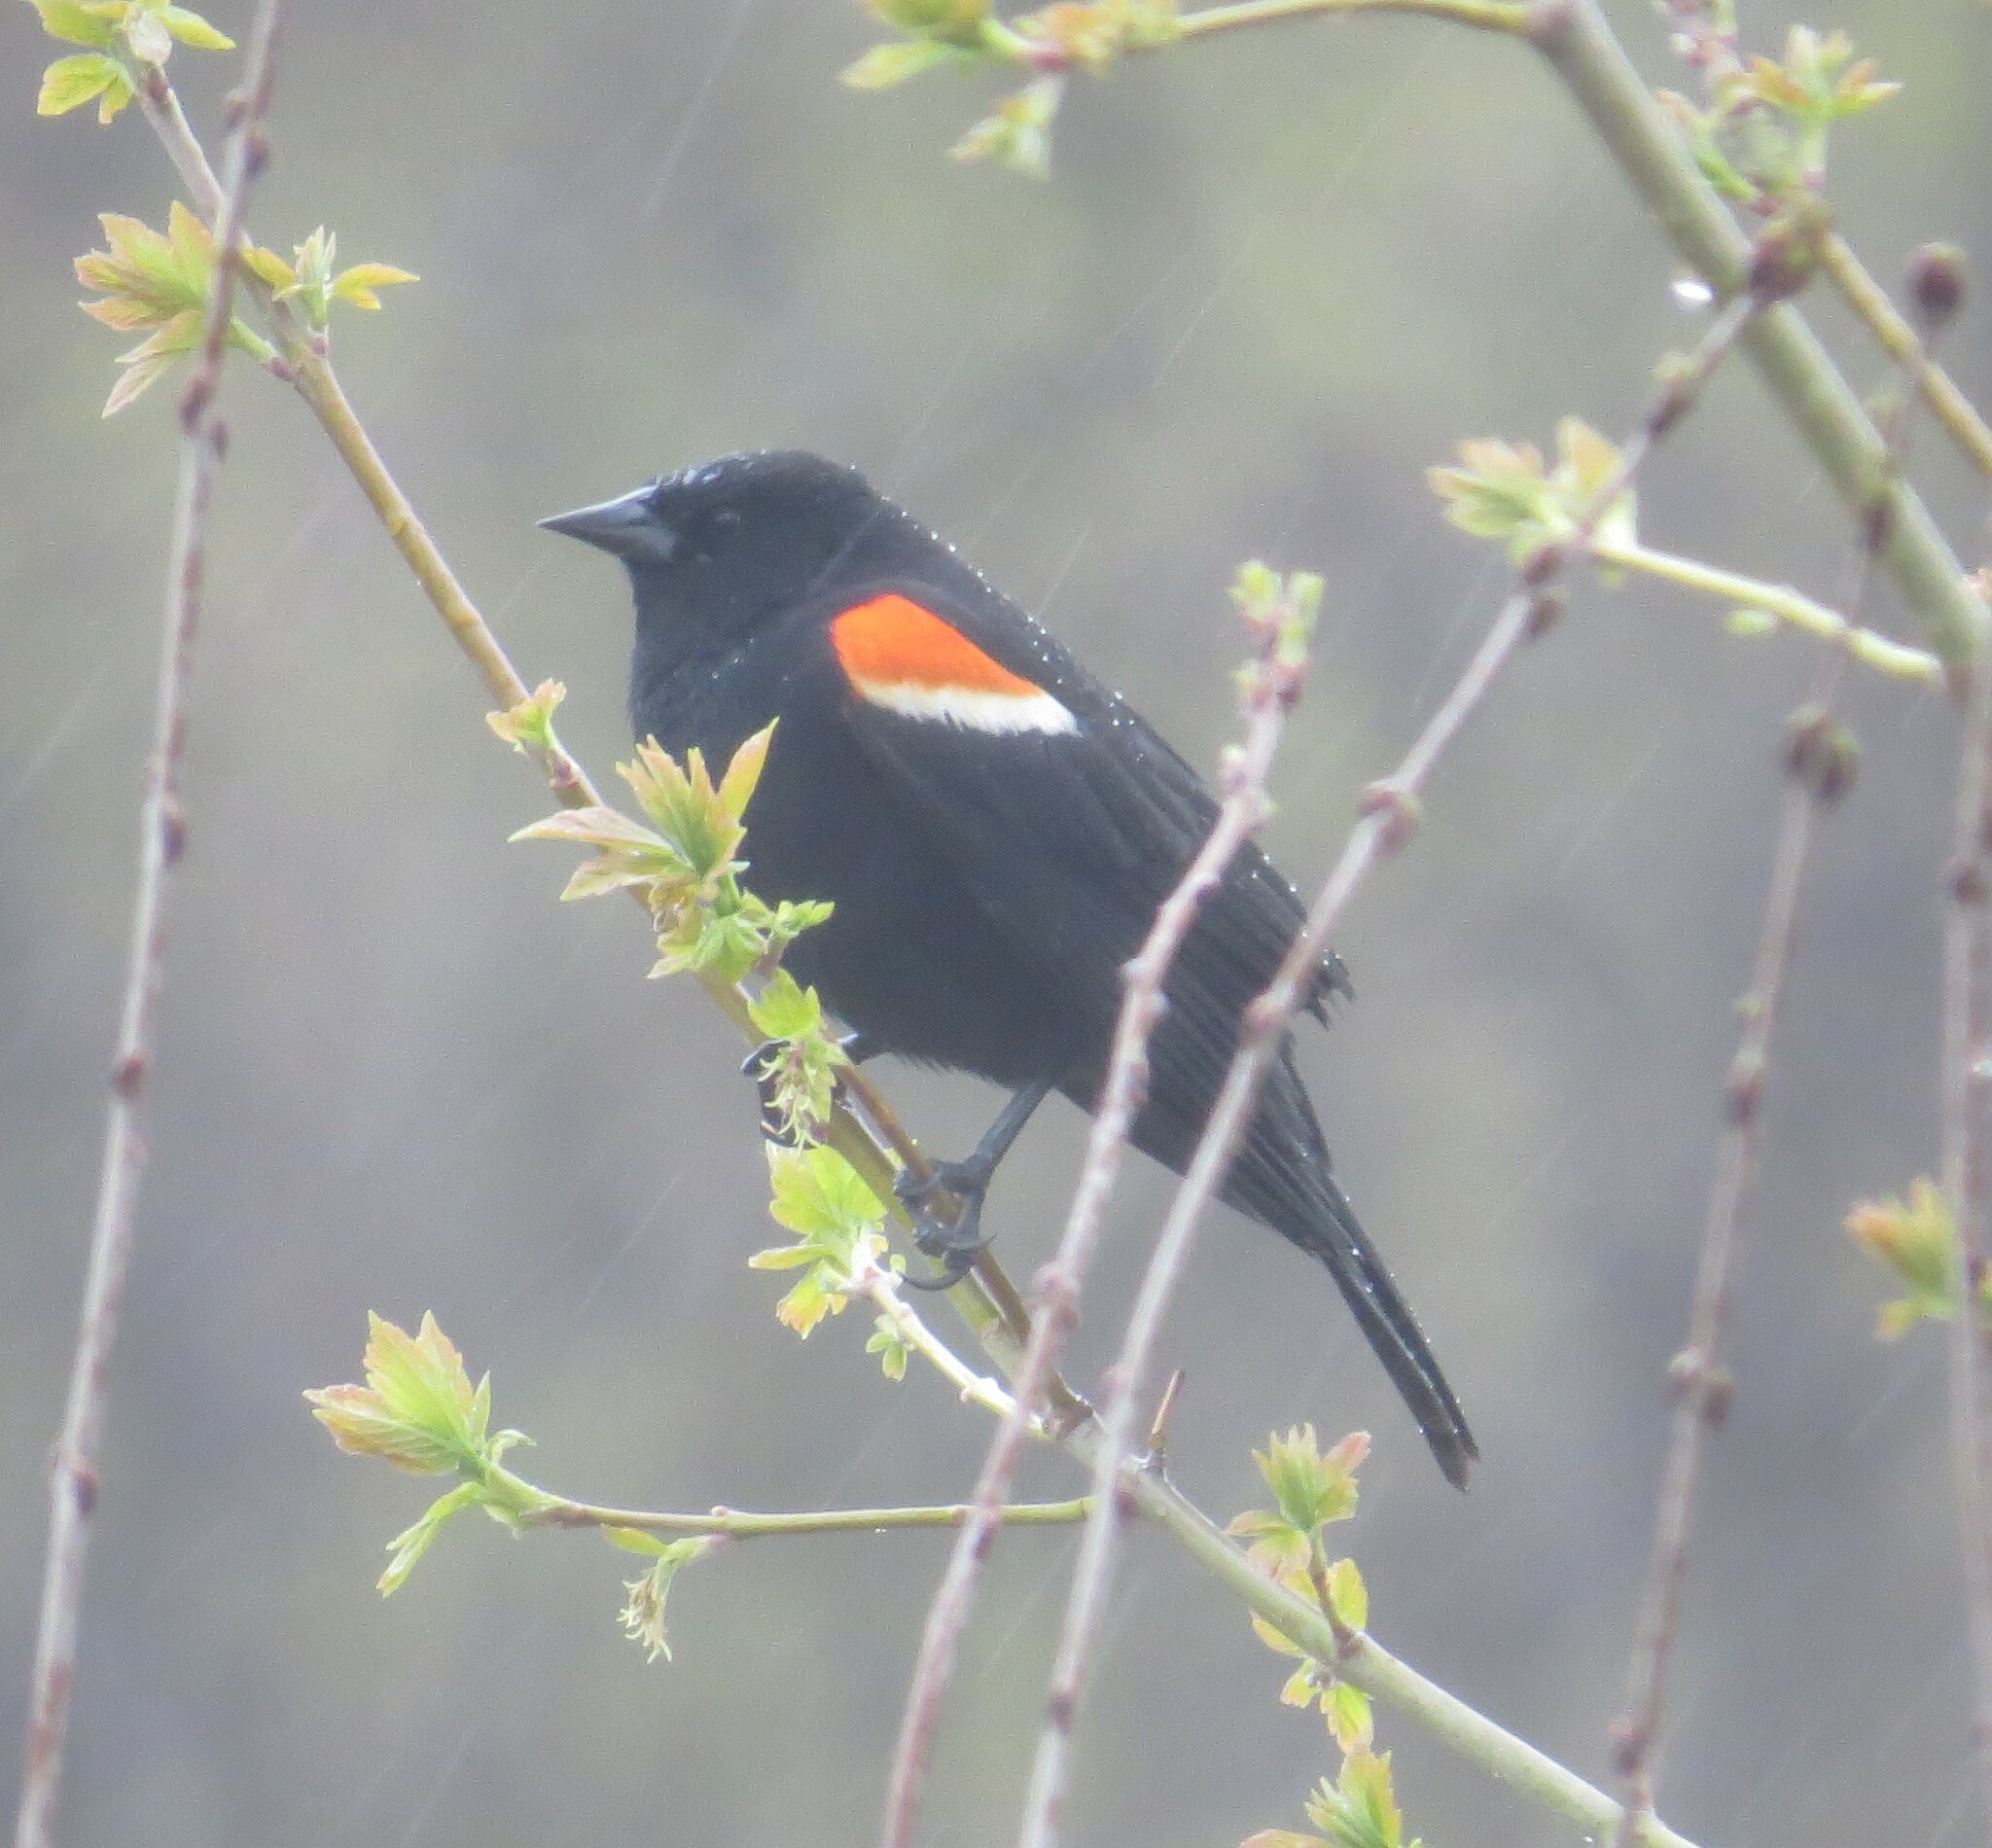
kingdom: Animalia
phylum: Chordata
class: Aves
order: Passeriformes
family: Icteridae
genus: Agelaius
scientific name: Agelaius phoeniceus
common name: Red-winged blackbird
